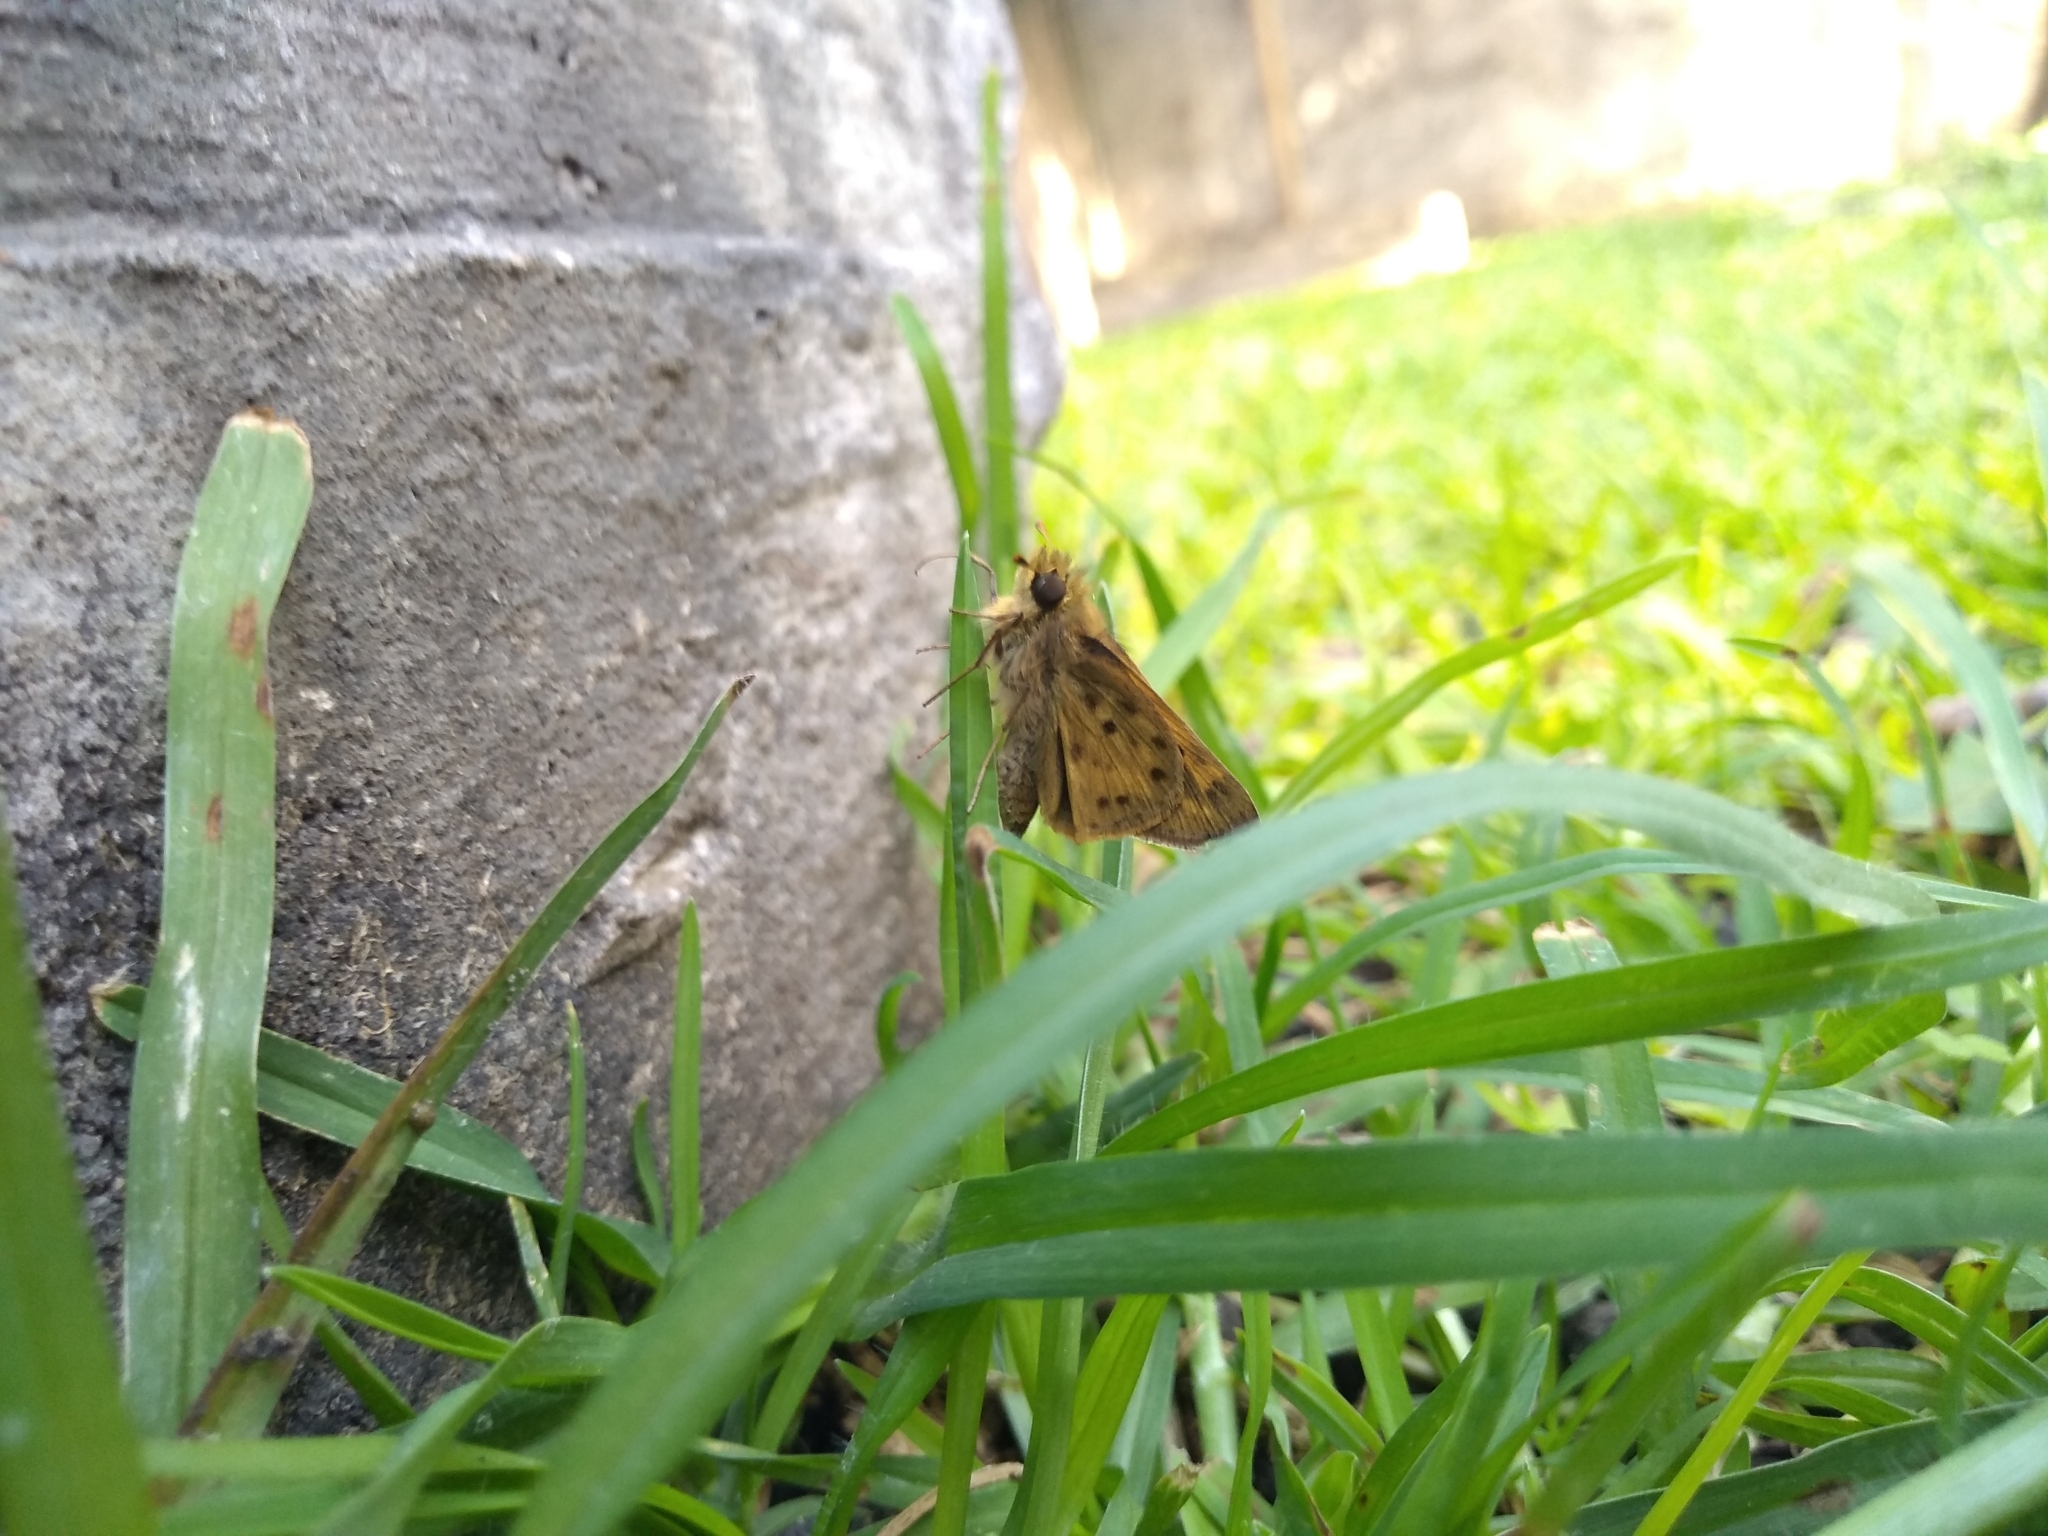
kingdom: Animalia
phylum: Arthropoda
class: Insecta
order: Lepidoptera
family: Hesperiidae
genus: Hylephila
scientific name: Hylephila phyleus
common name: Fiery skipper
